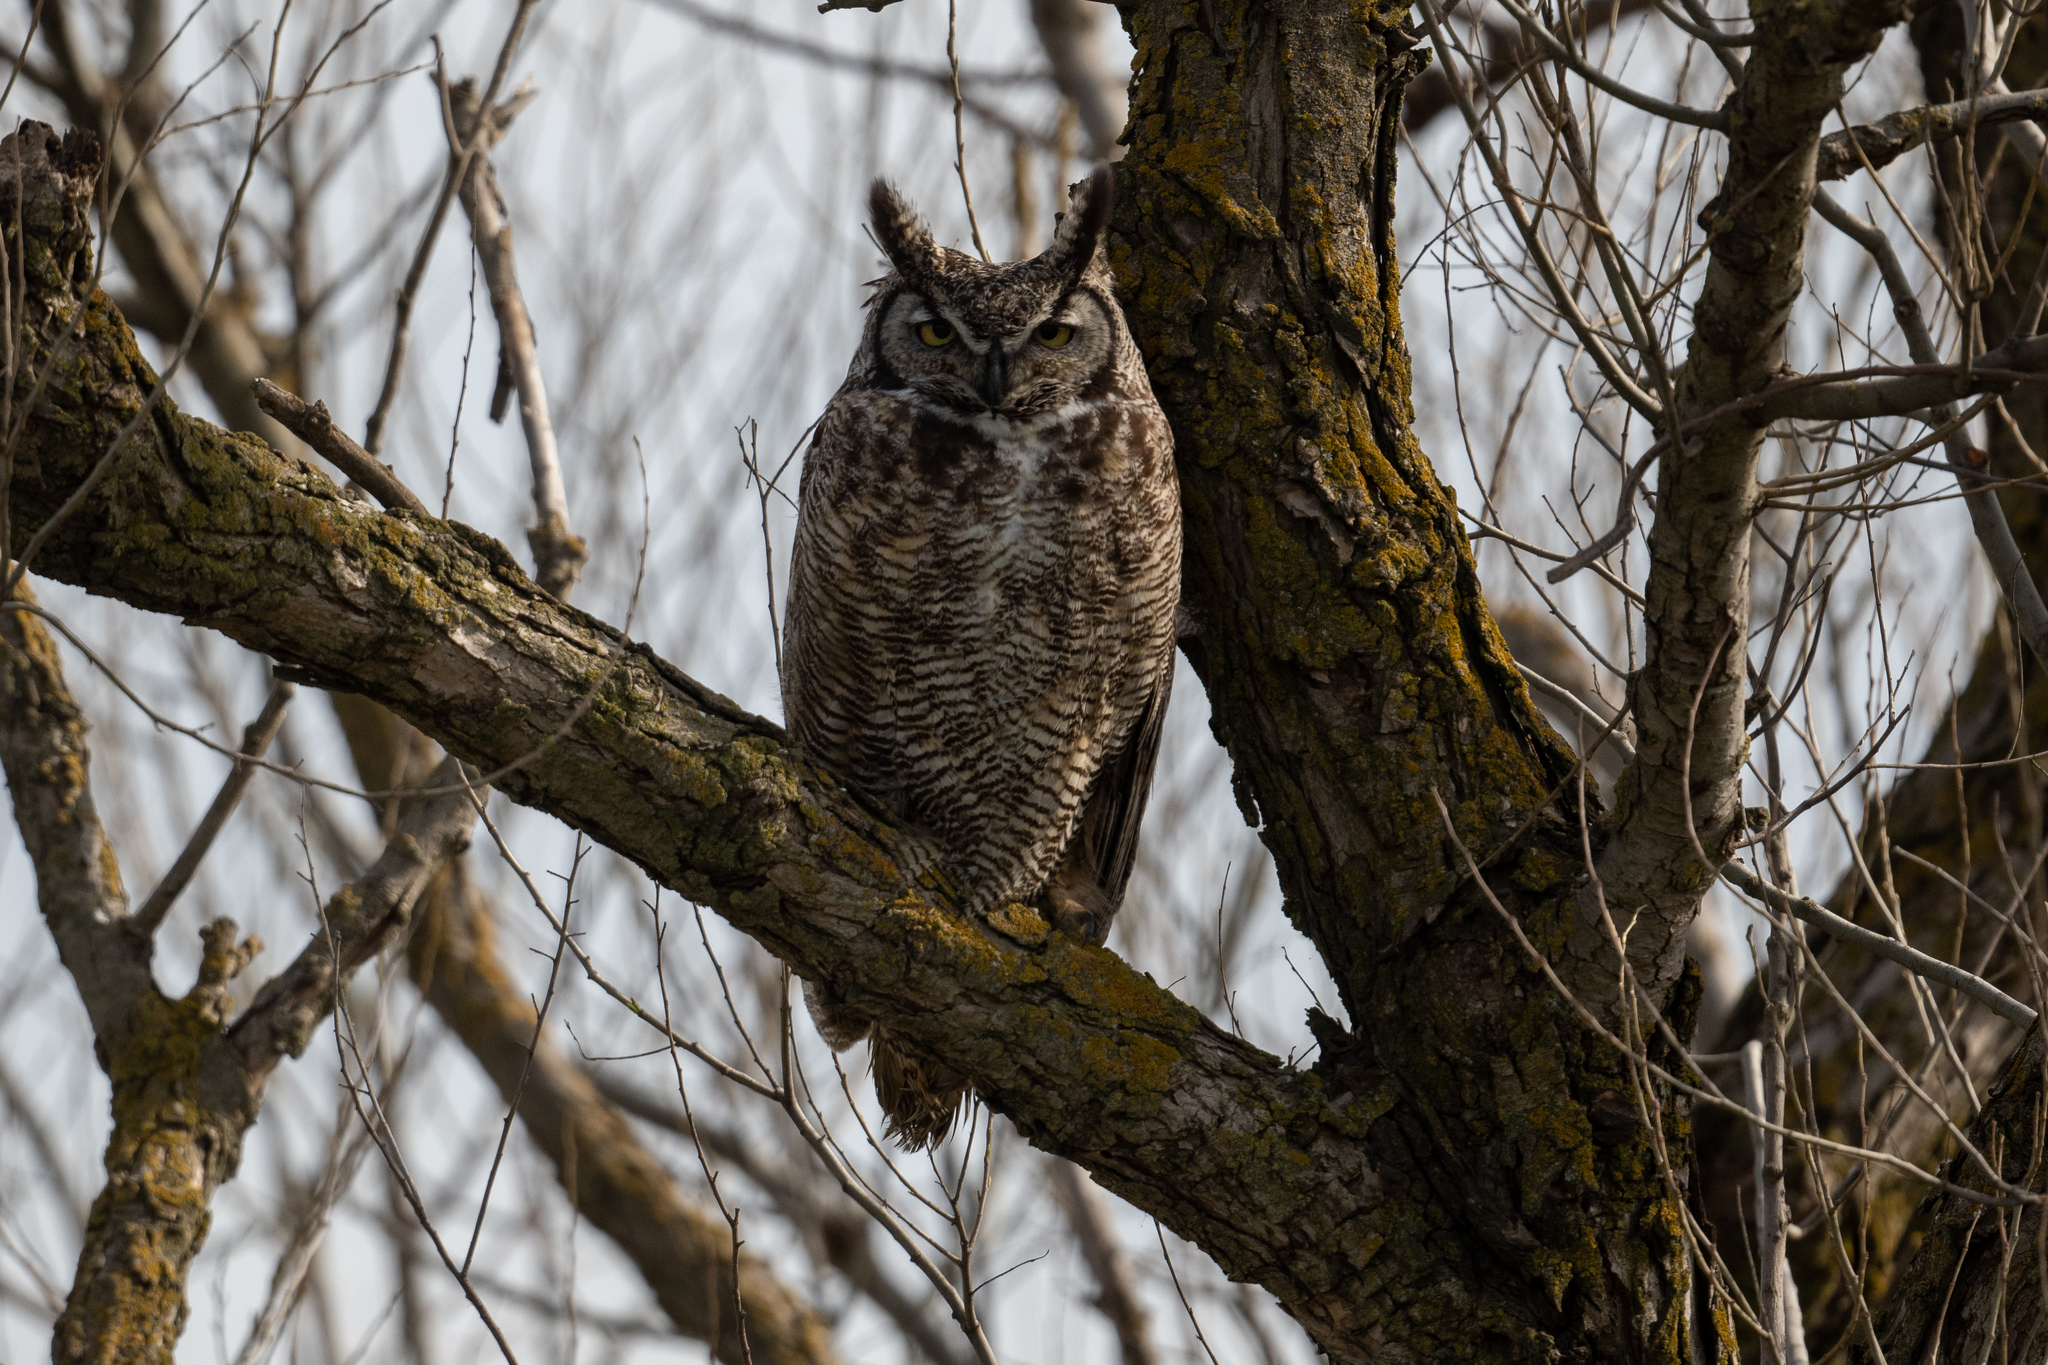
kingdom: Animalia
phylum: Chordata
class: Aves
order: Strigiformes
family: Strigidae
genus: Bubo
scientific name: Bubo virginianus
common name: Great horned owl
